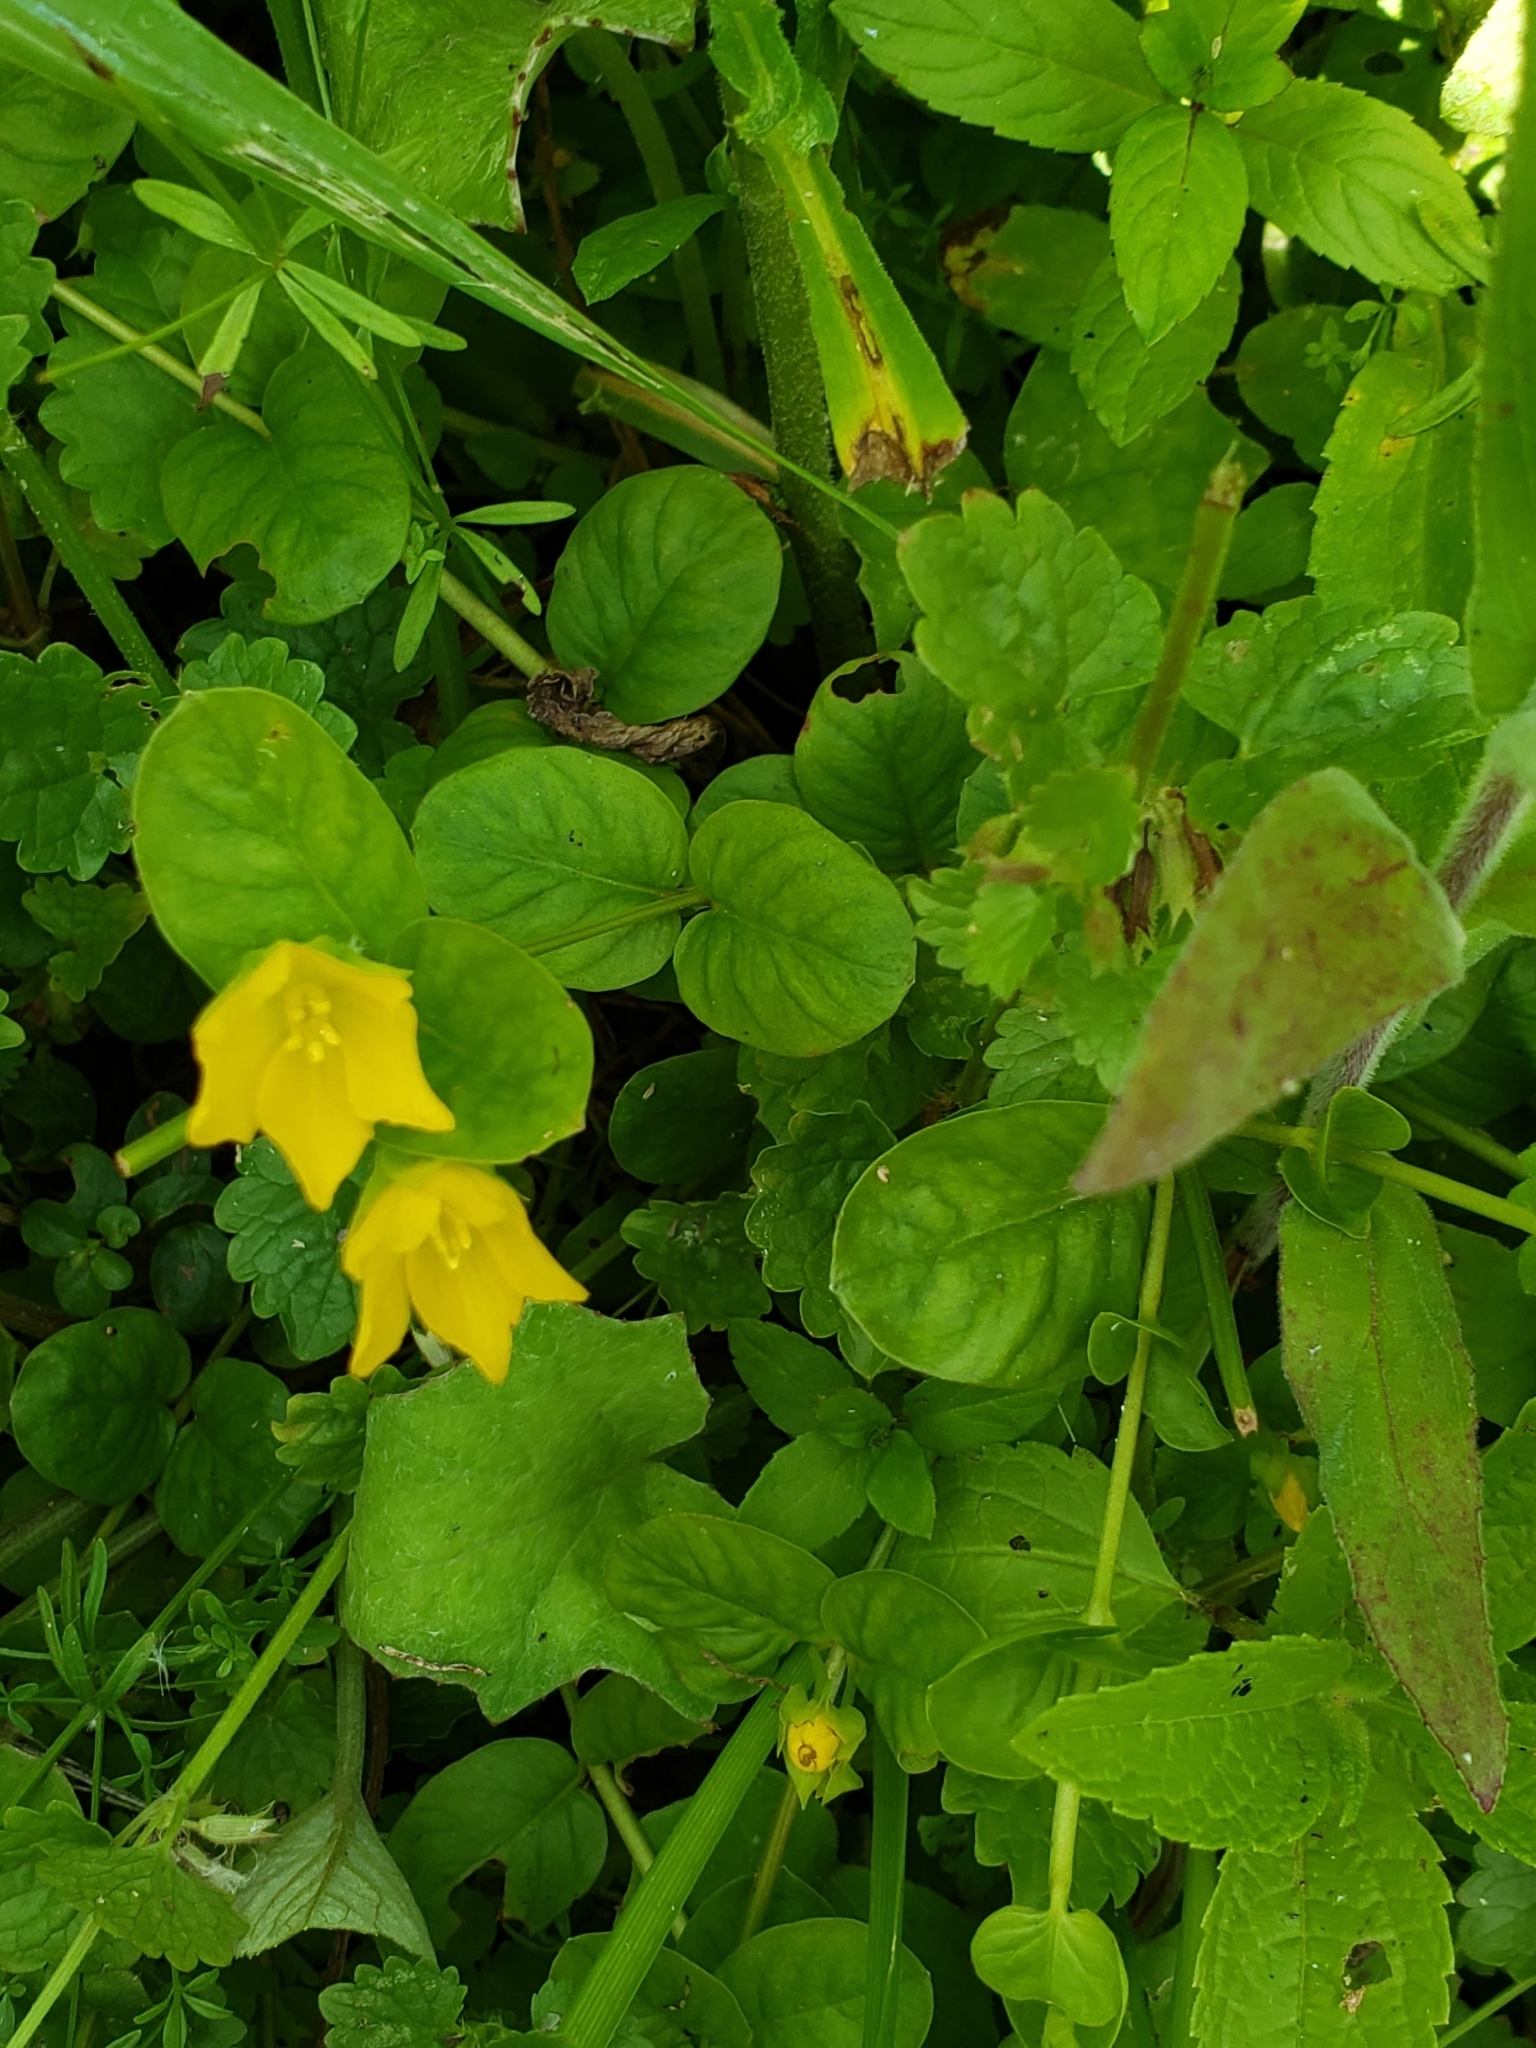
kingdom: Plantae
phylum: Tracheophyta
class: Magnoliopsida
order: Ericales
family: Primulaceae
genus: Lysimachia
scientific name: Lysimachia nummularia
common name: Moneywort
